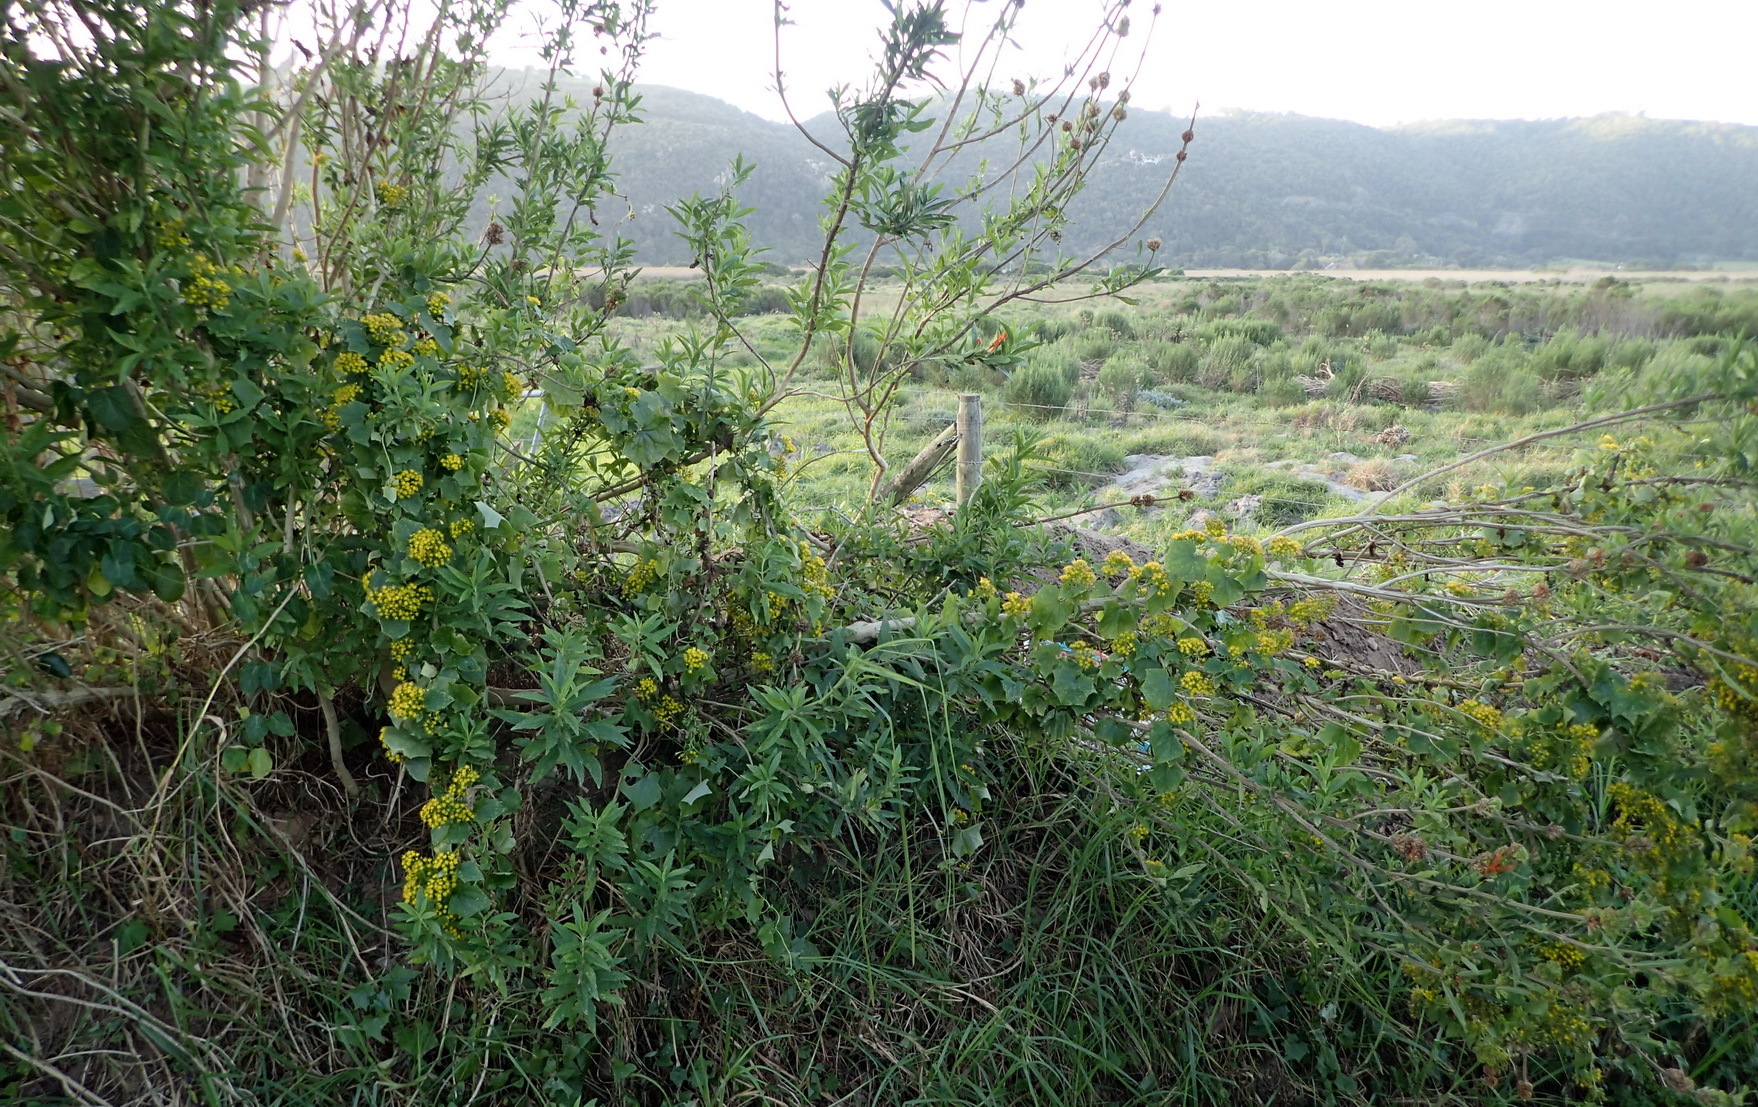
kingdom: Plantae
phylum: Tracheophyta
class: Magnoliopsida
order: Asterales
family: Asteraceae
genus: Delairea
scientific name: Delairea odorata
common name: Cape-ivy
